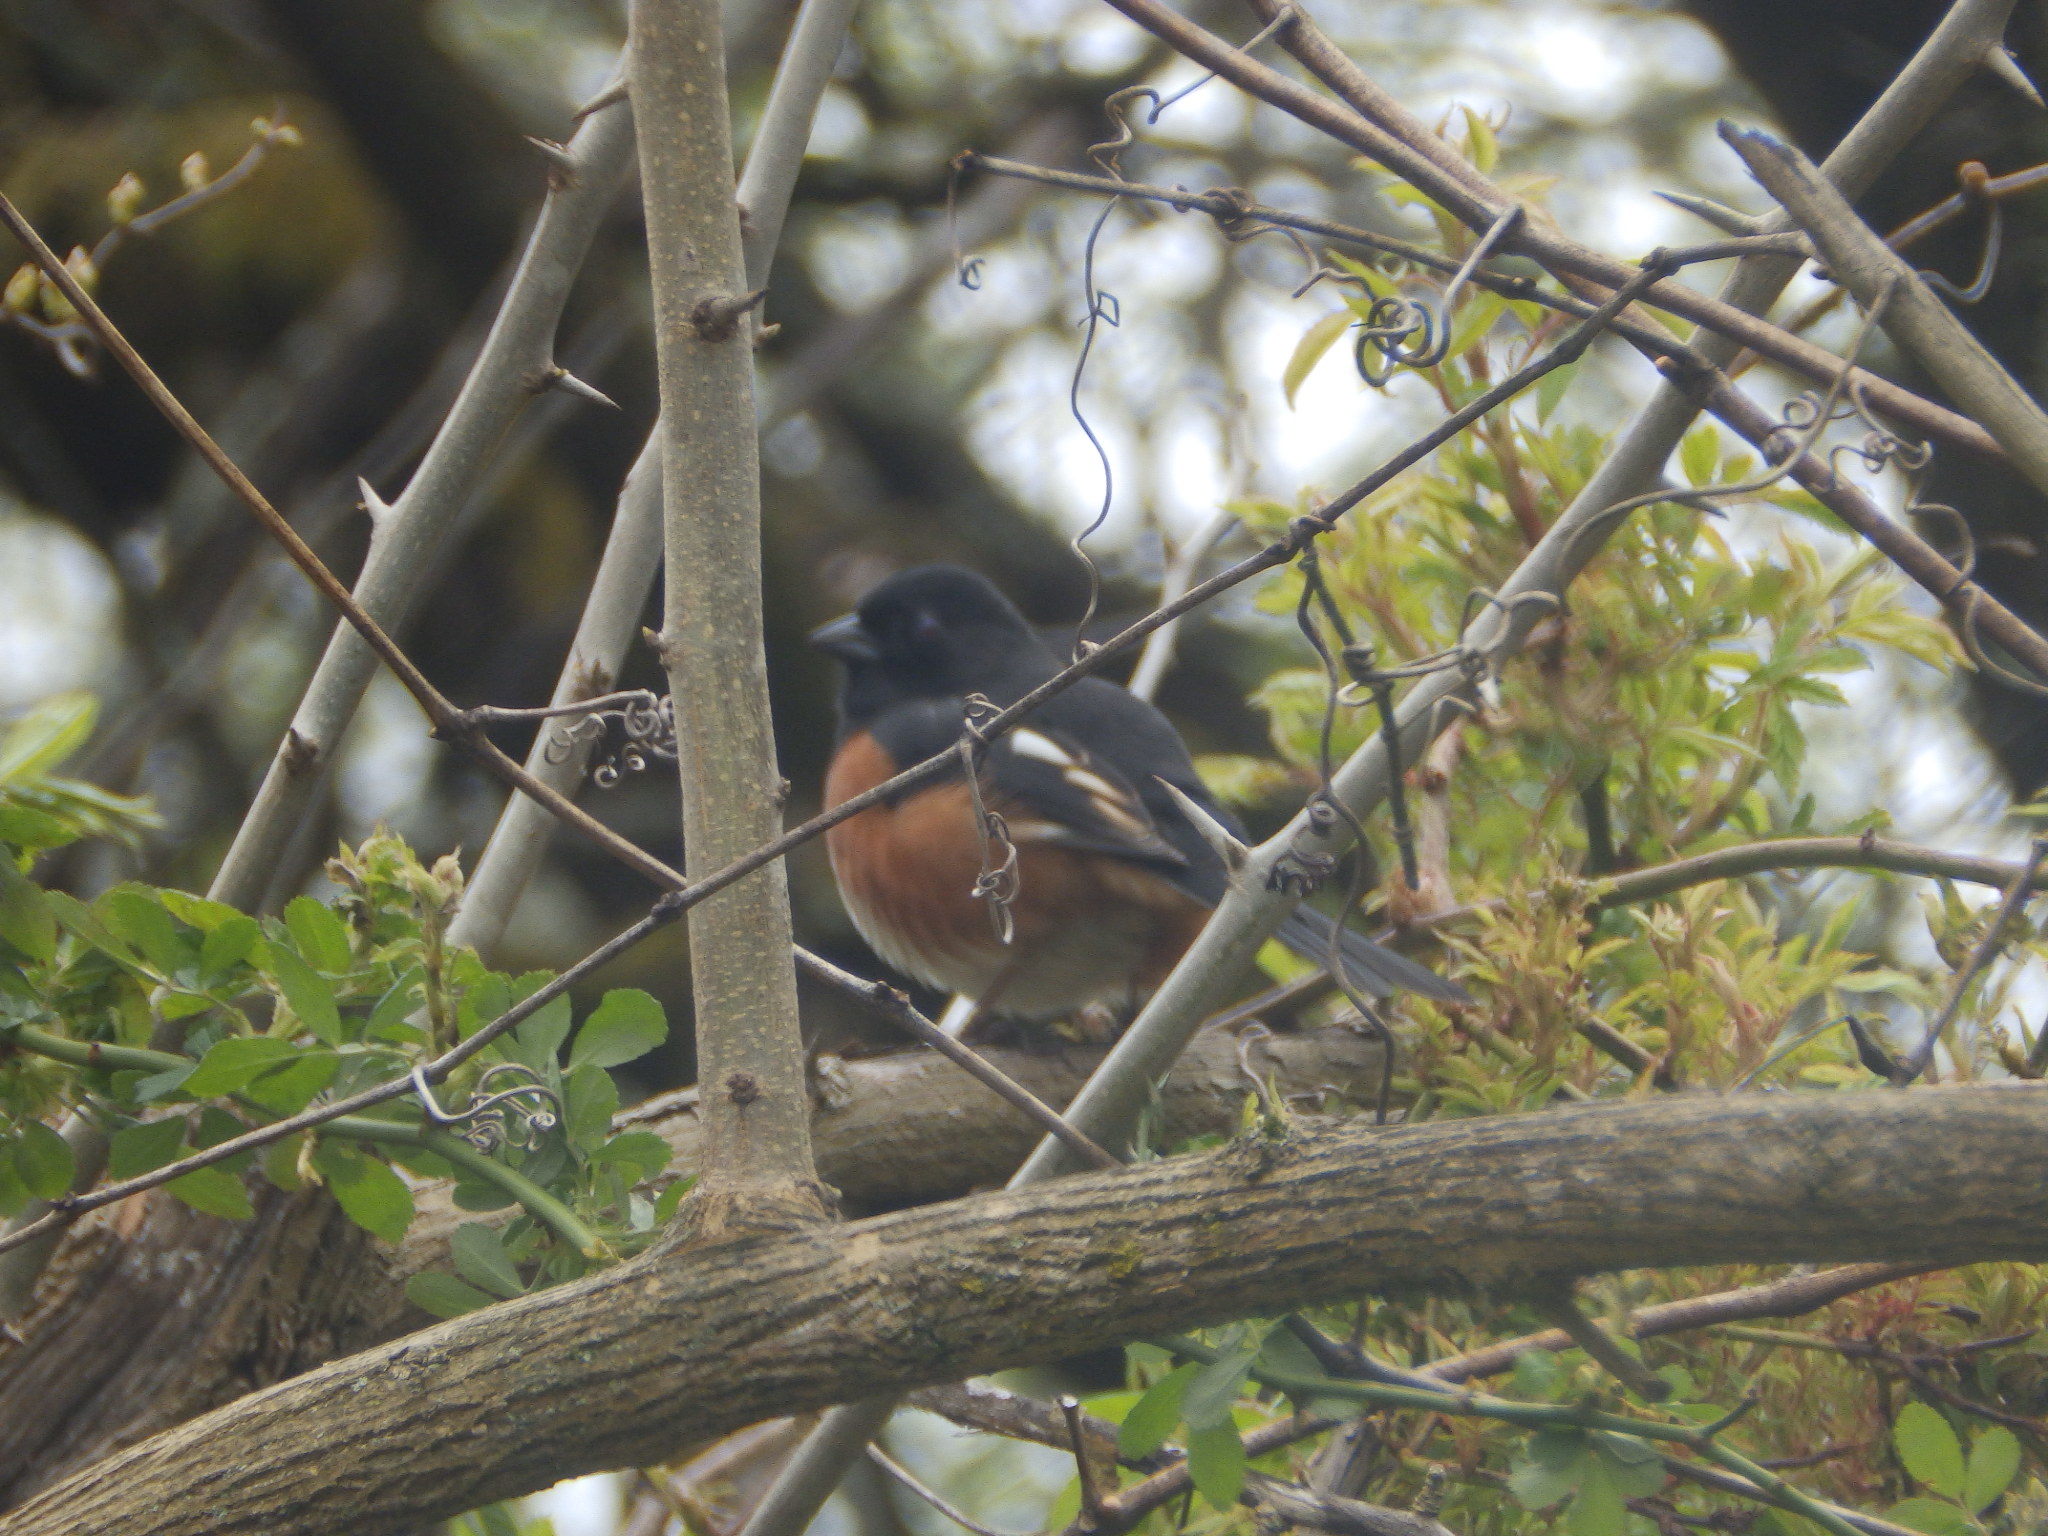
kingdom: Animalia
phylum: Chordata
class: Aves
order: Passeriformes
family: Passerellidae
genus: Pipilo
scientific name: Pipilo erythrophthalmus
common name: Eastern towhee
